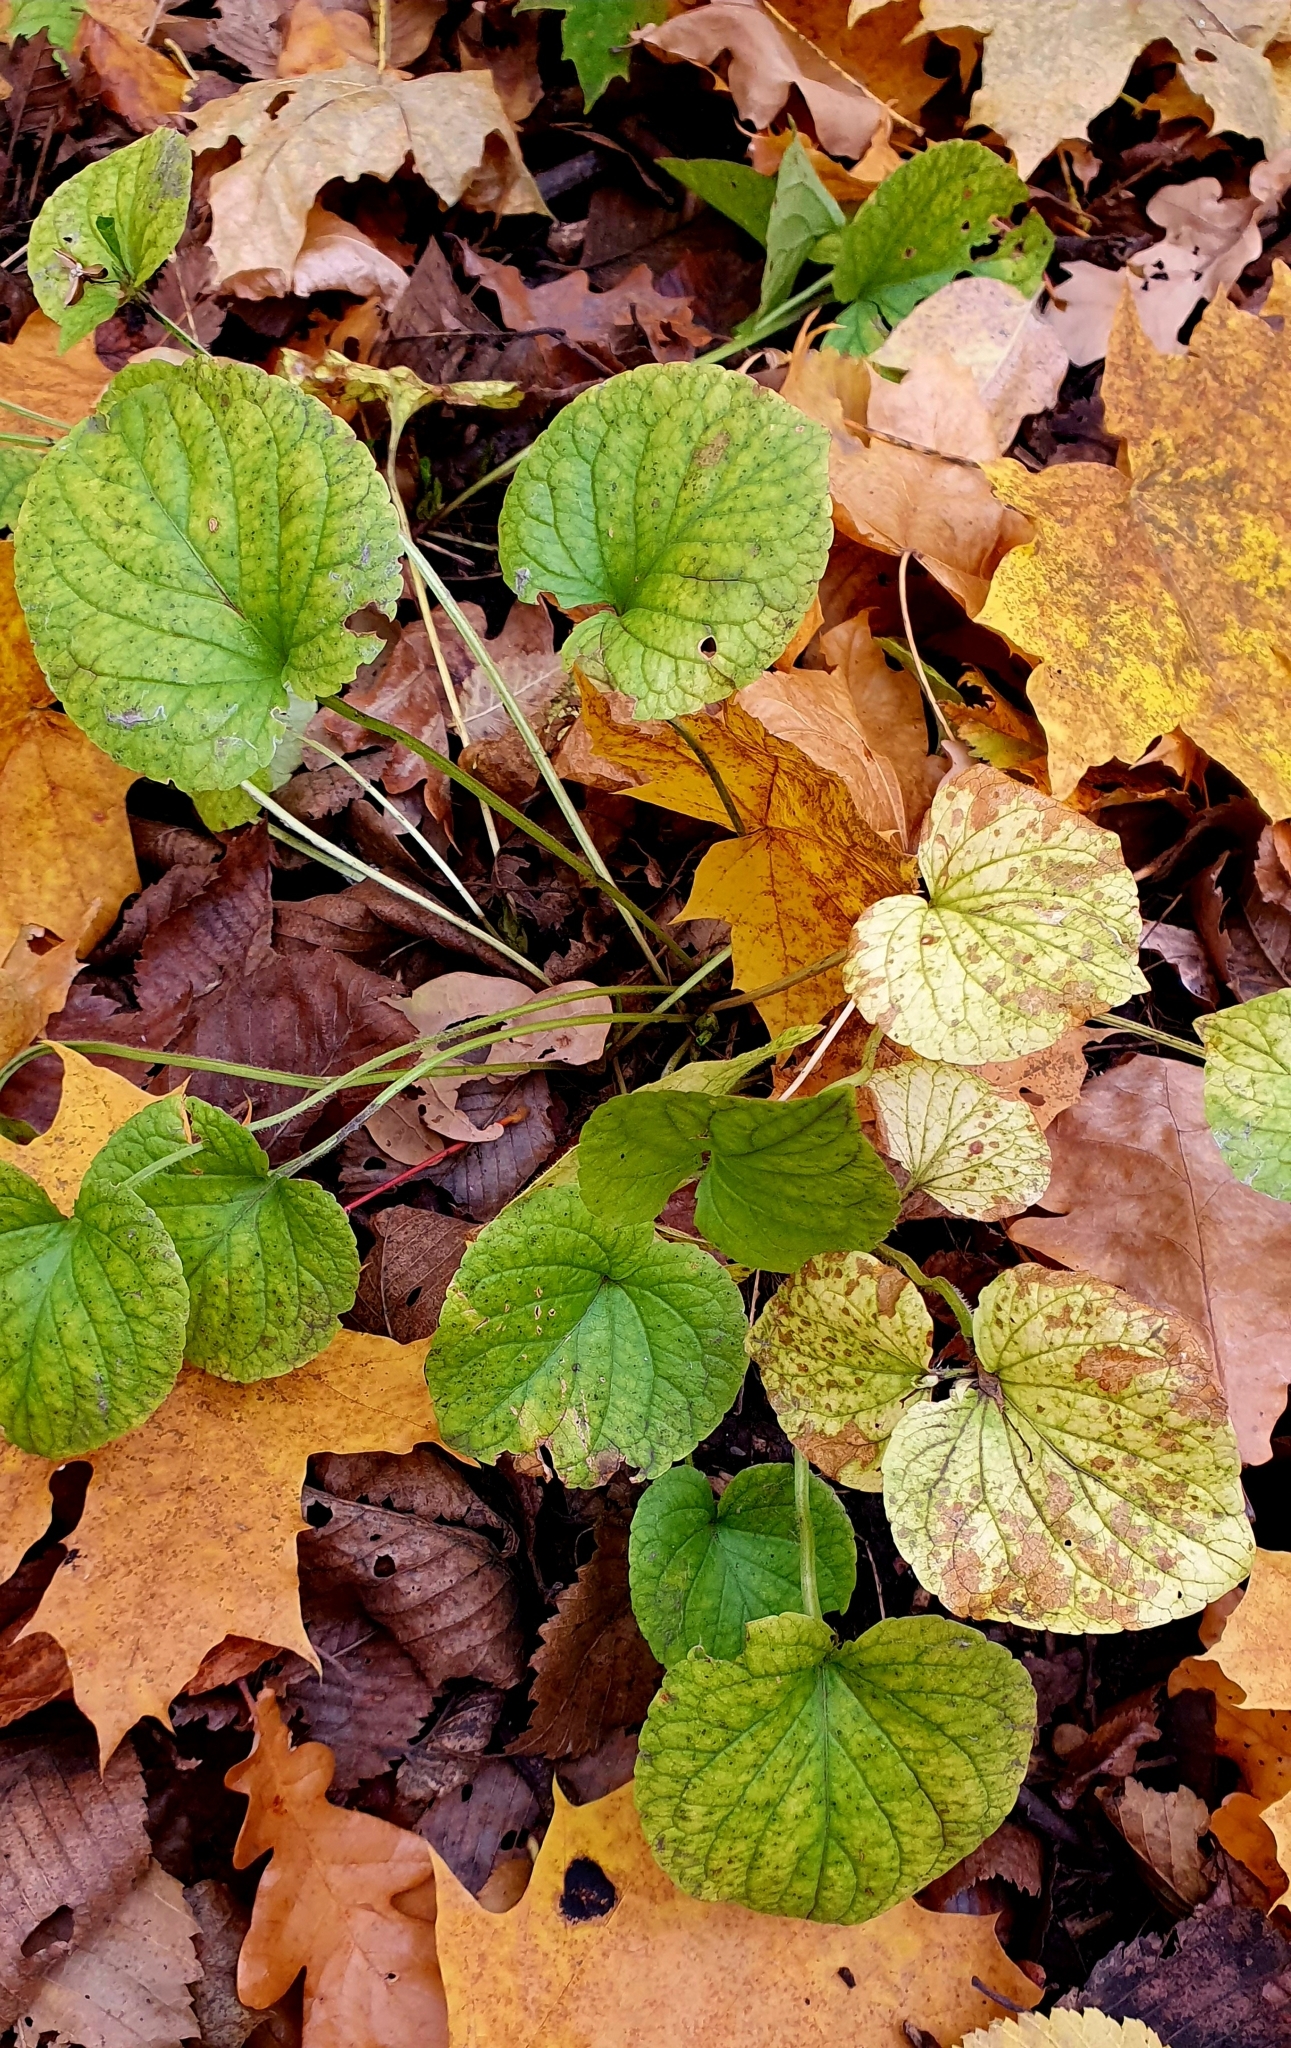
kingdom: Plantae
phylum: Tracheophyta
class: Magnoliopsida
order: Malpighiales
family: Violaceae
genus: Viola
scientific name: Viola mirabilis
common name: Wonder violet
